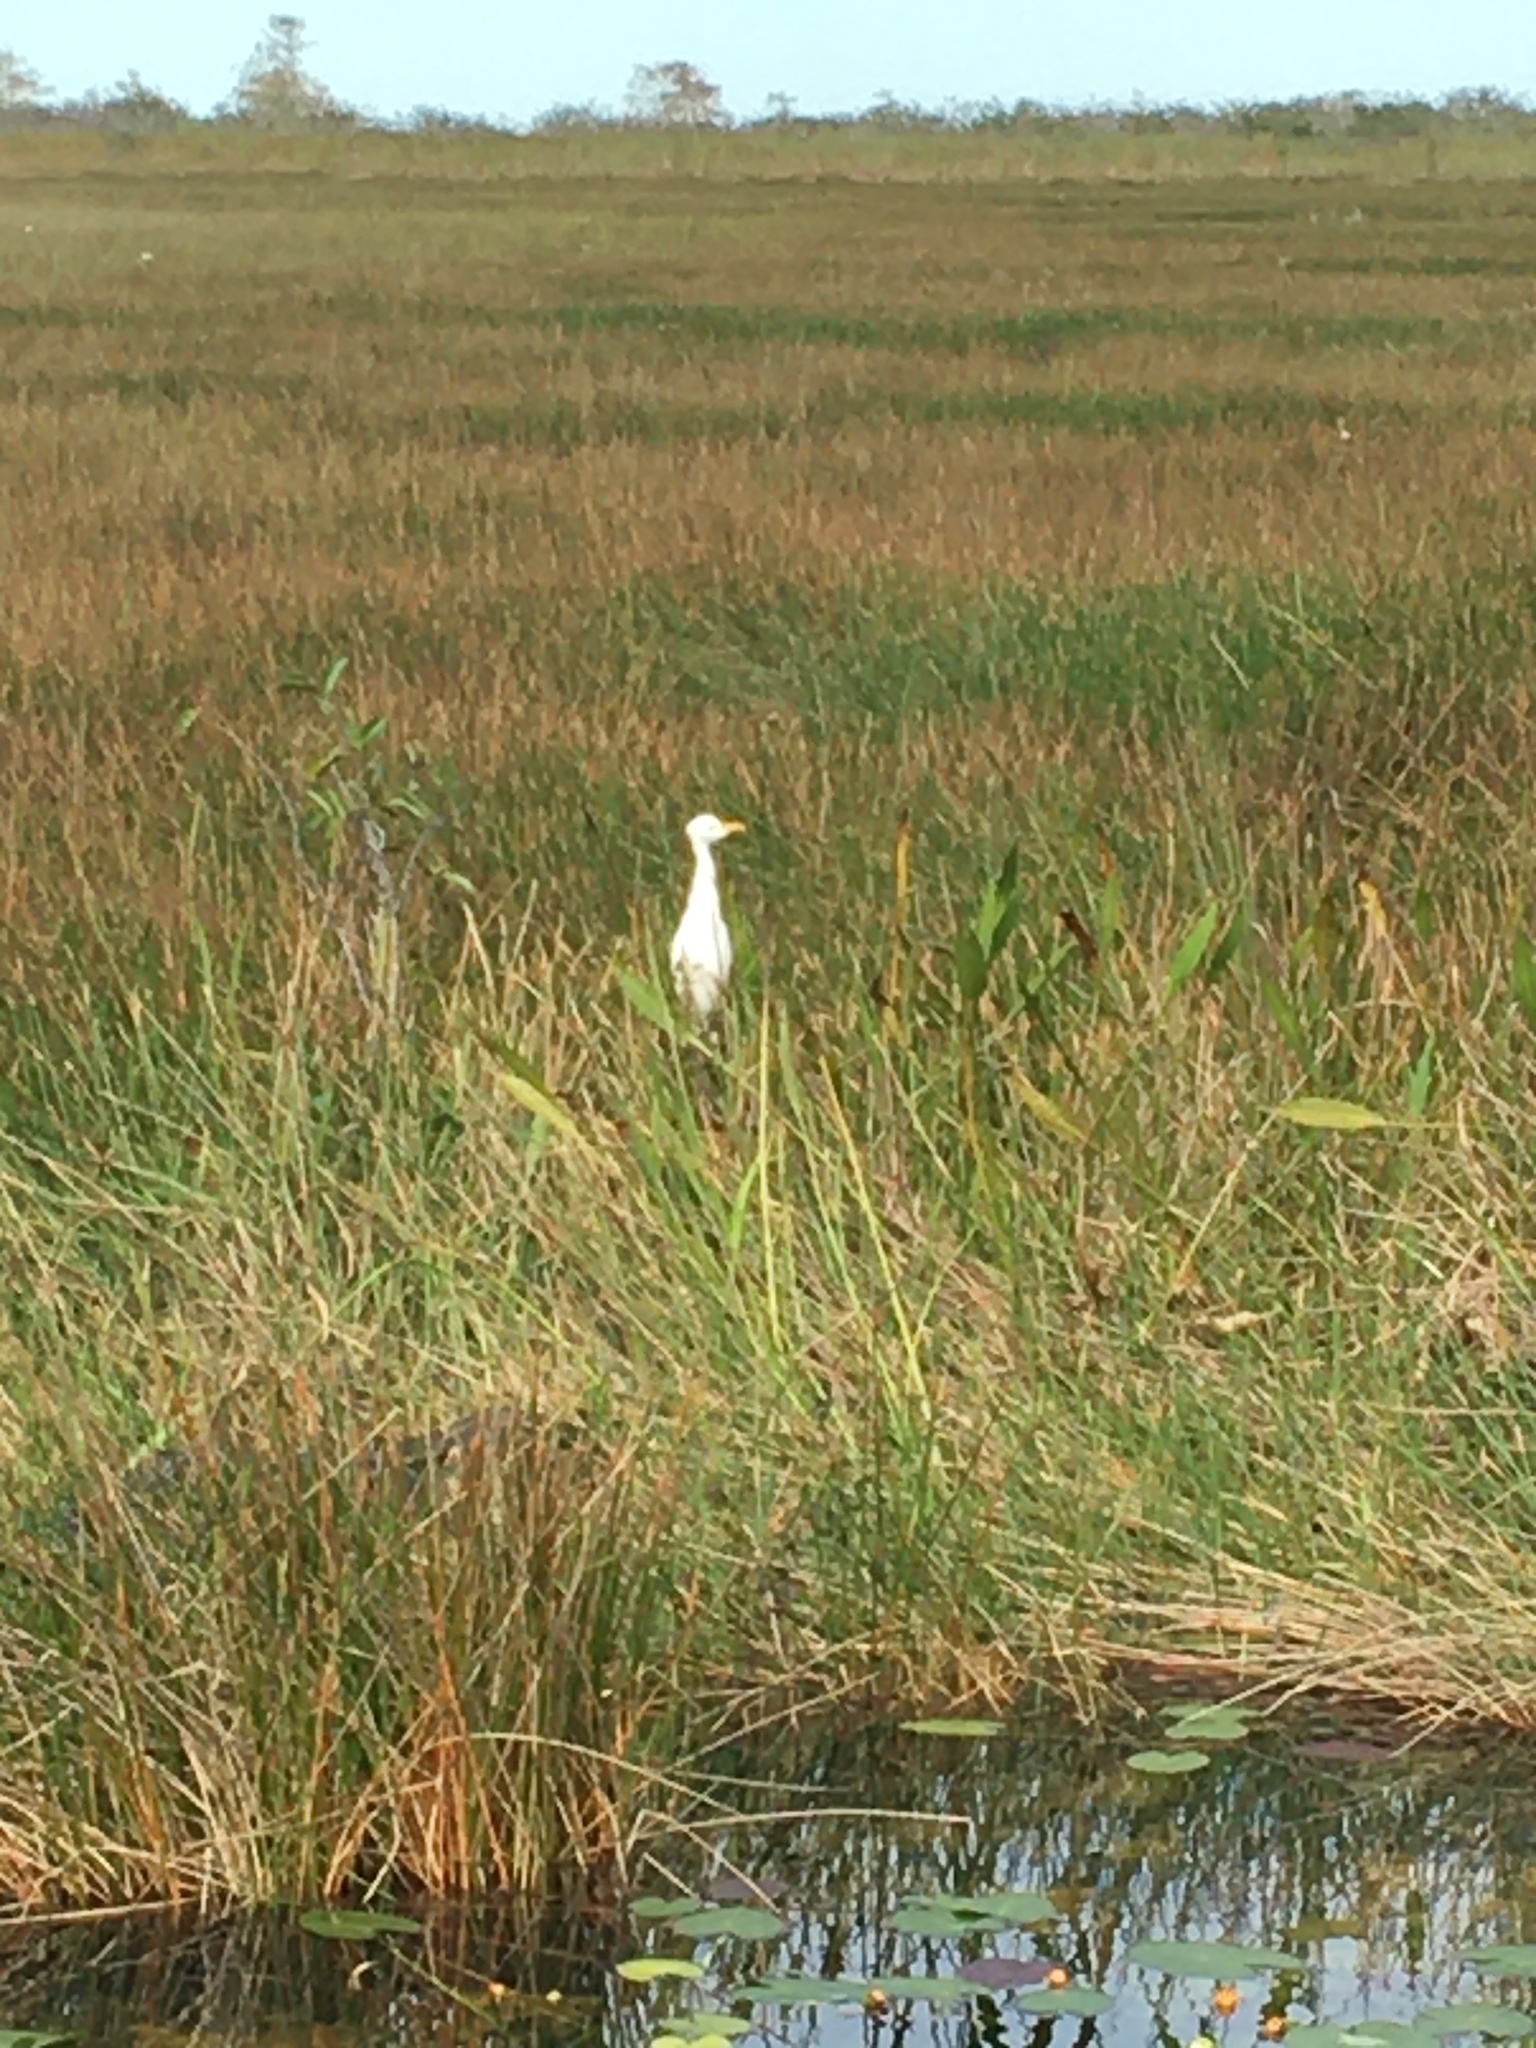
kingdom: Animalia
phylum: Chordata
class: Aves
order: Pelecaniformes
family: Ardeidae
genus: Bubulcus
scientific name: Bubulcus ibis
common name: Cattle egret
